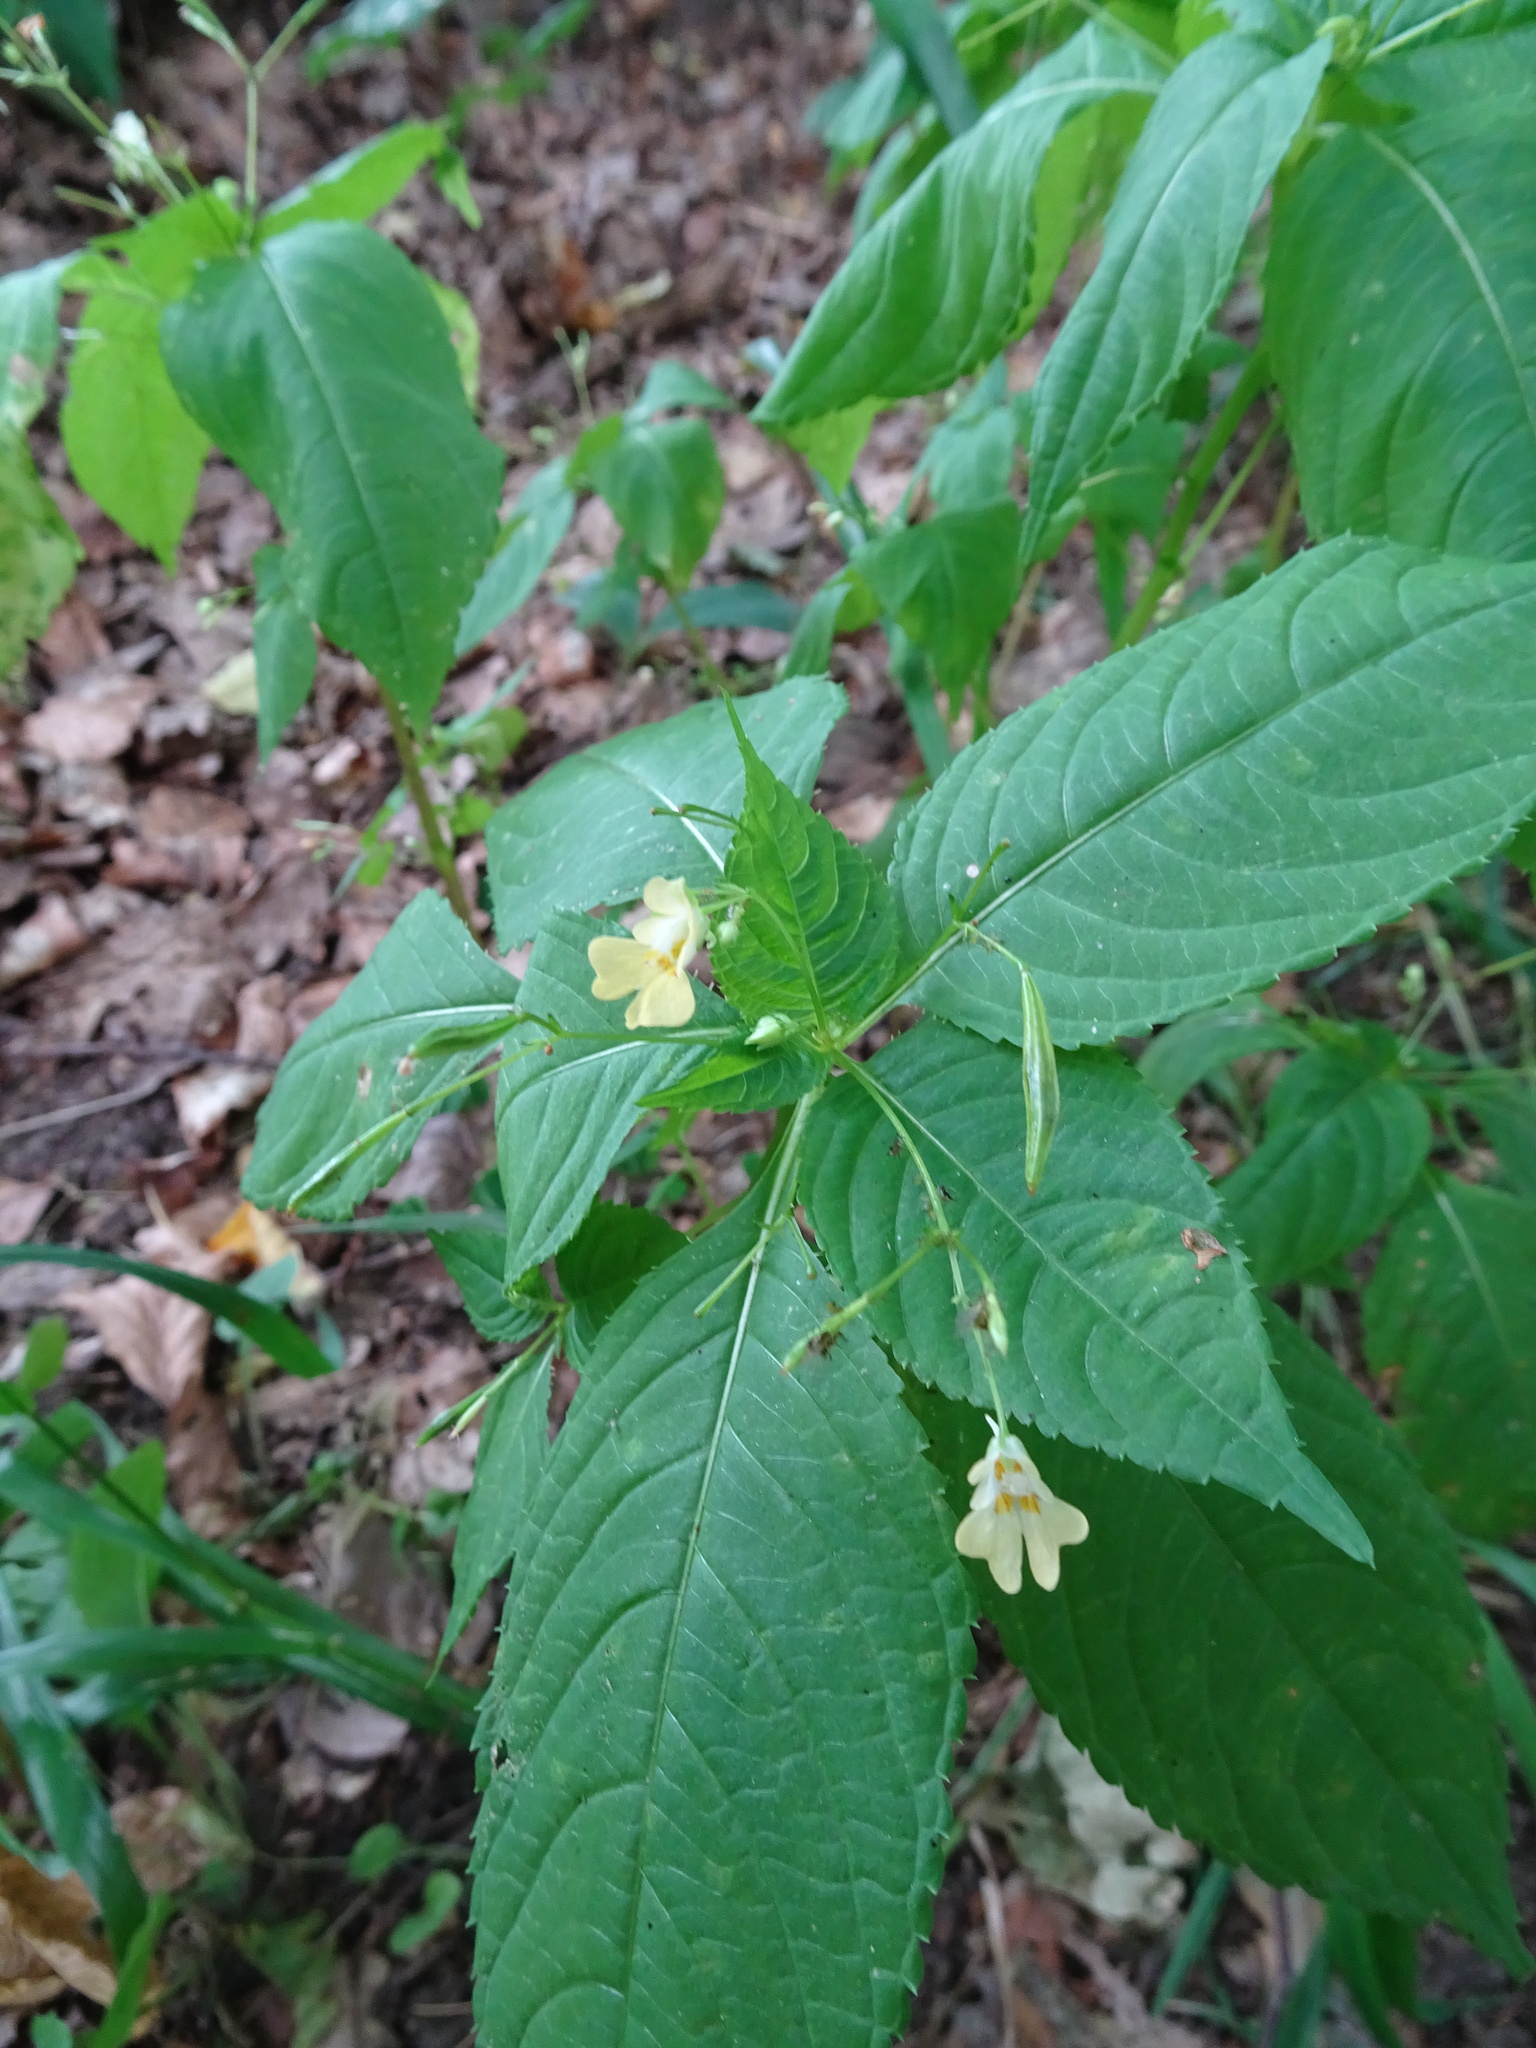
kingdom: Plantae
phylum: Tracheophyta
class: Magnoliopsida
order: Ericales
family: Balsaminaceae
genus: Impatiens
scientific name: Impatiens parviflora
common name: Small balsam
